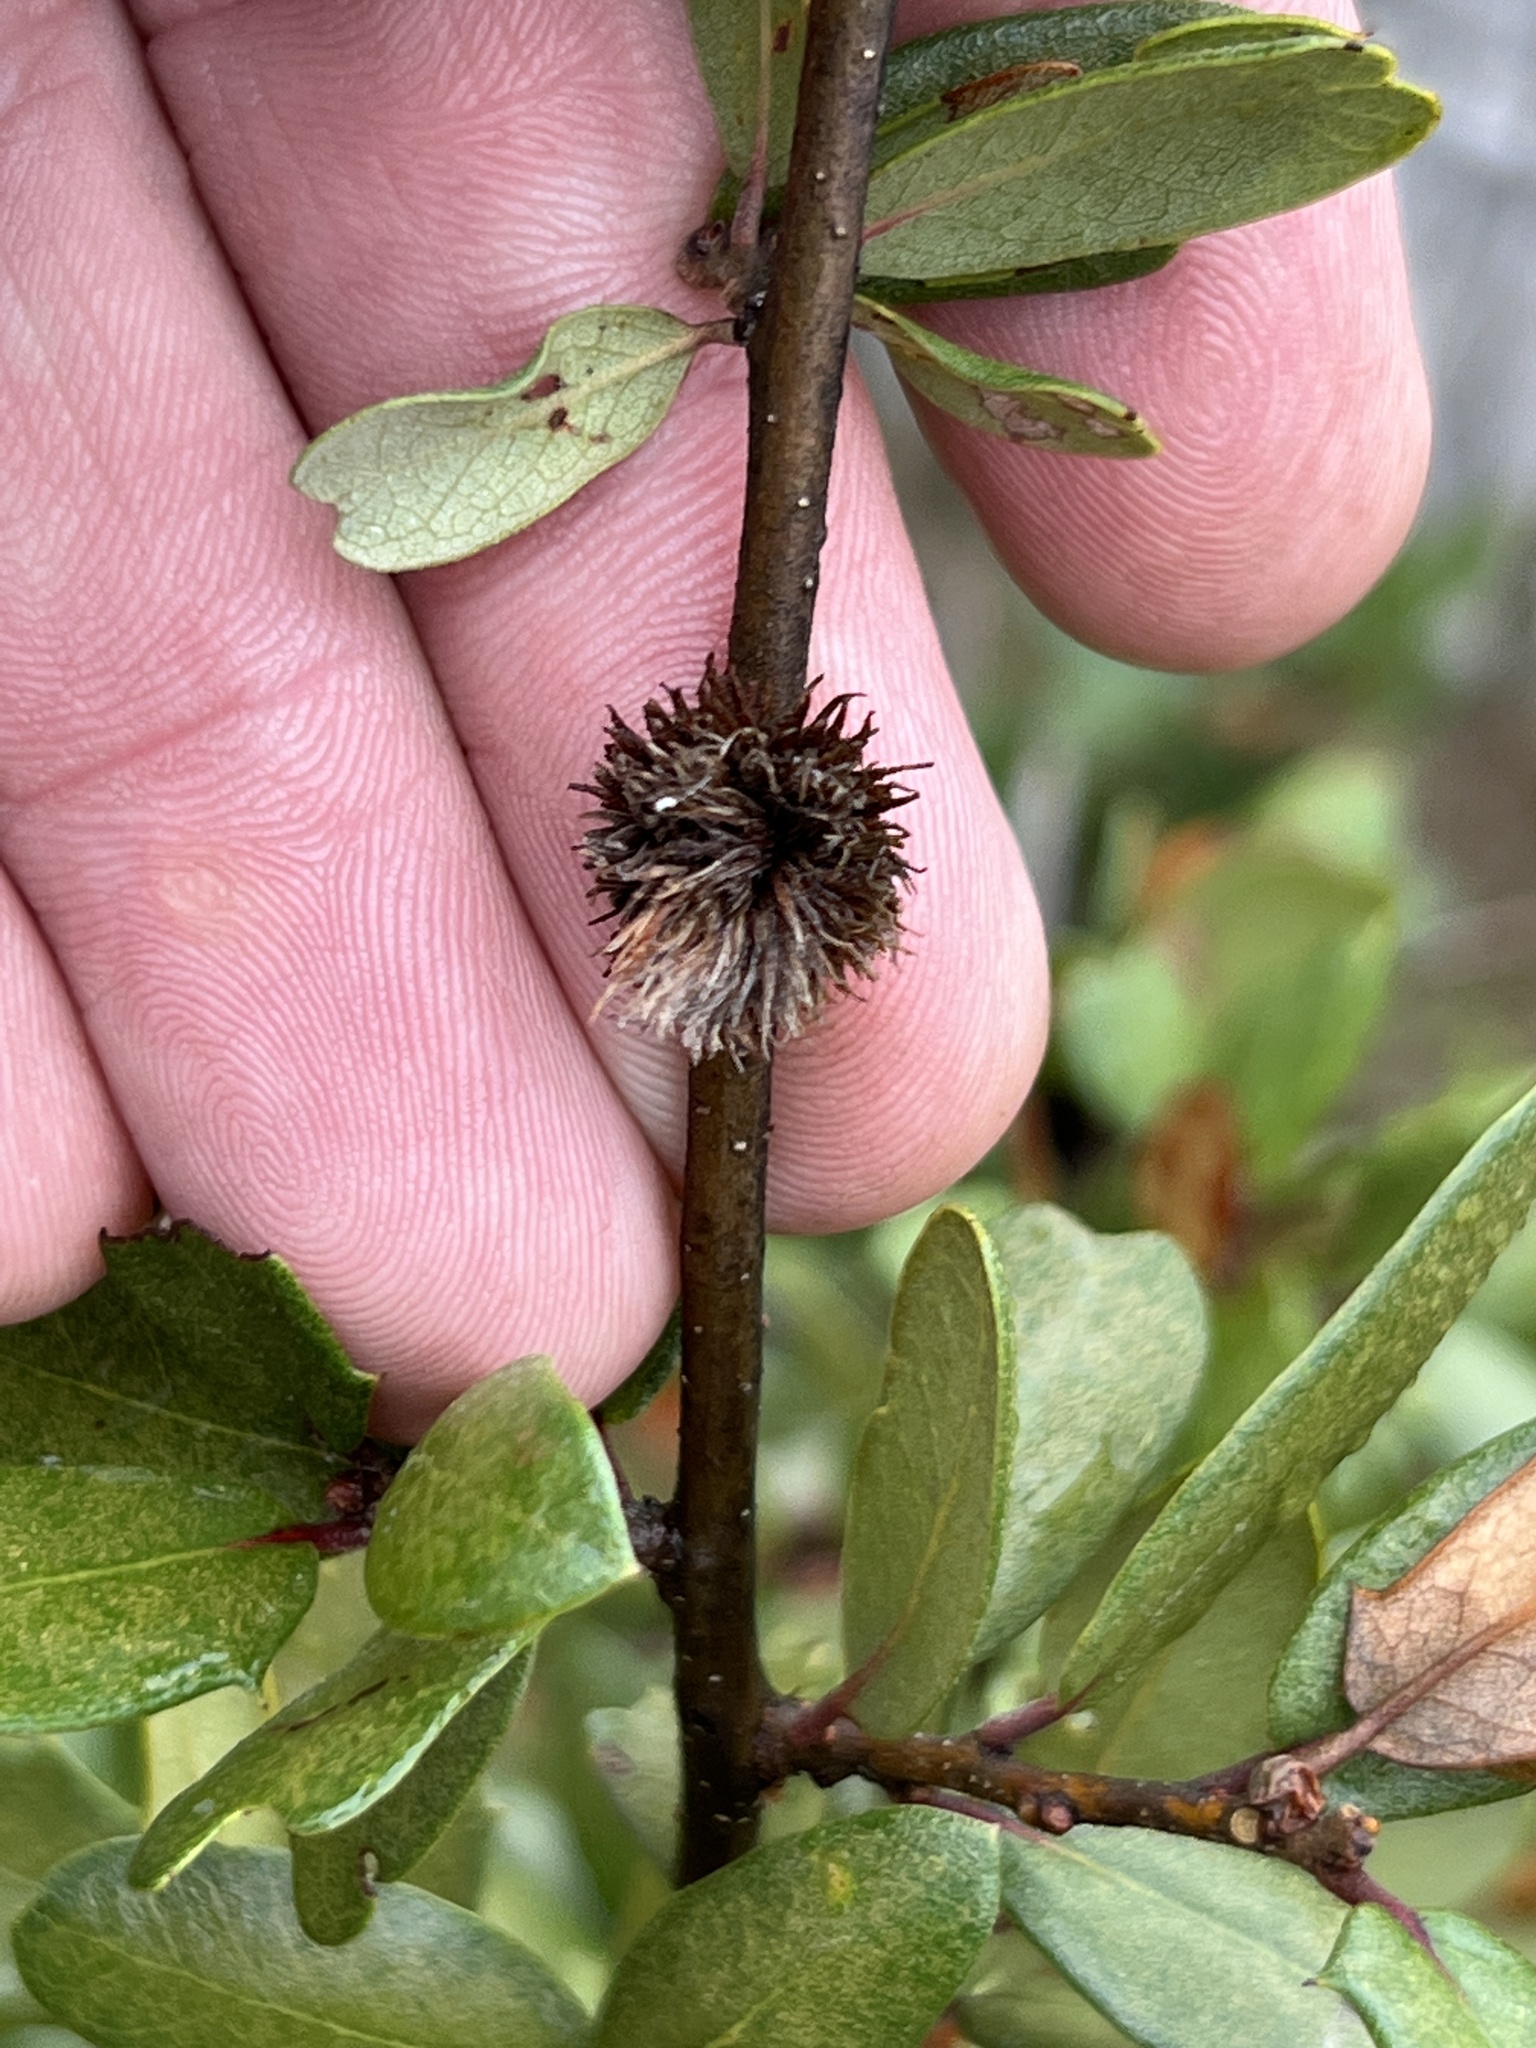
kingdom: Animalia
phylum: Arthropoda
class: Insecta
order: Hymenoptera
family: Cynipidae
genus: Andricus
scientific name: Andricus quercusfoliatus
